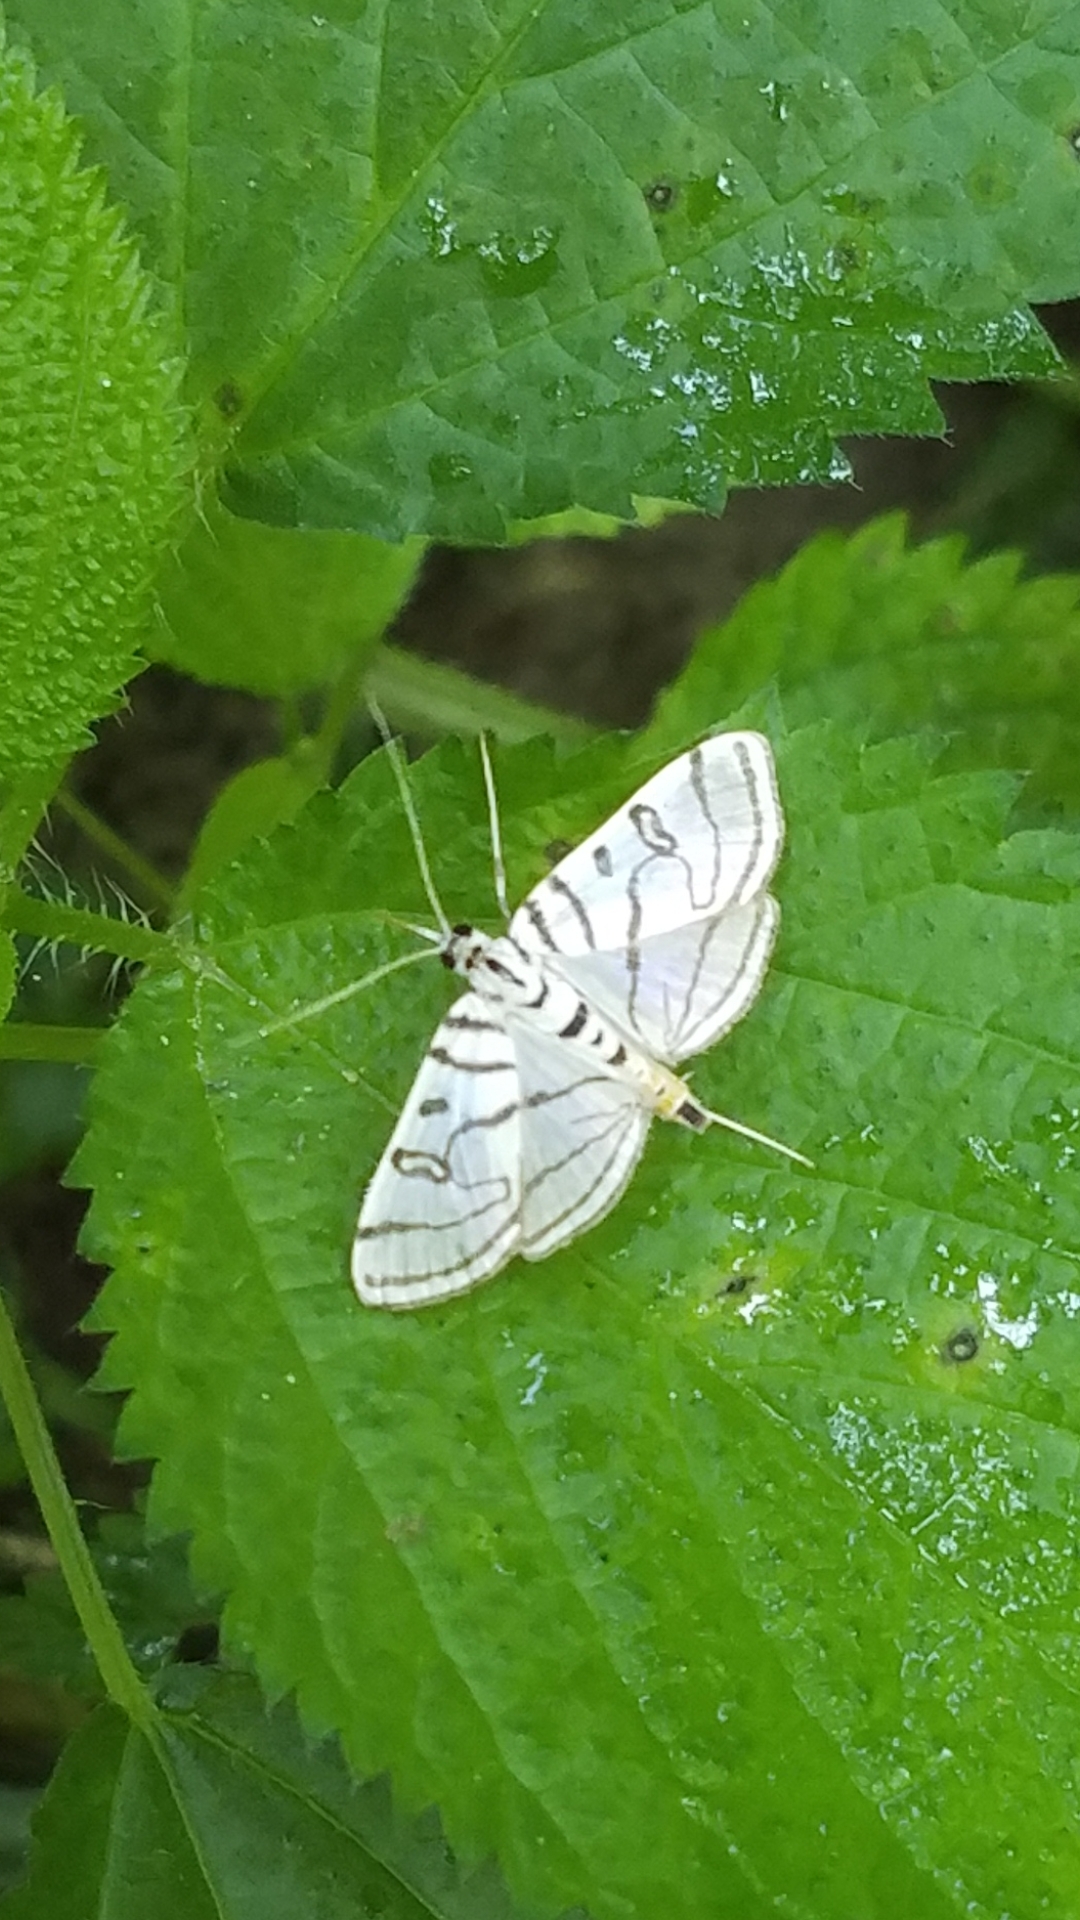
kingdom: Animalia
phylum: Arthropoda
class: Insecta
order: Lepidoptera
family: Crambidae
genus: Conchylodes
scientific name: Conchylodes ovulalis
